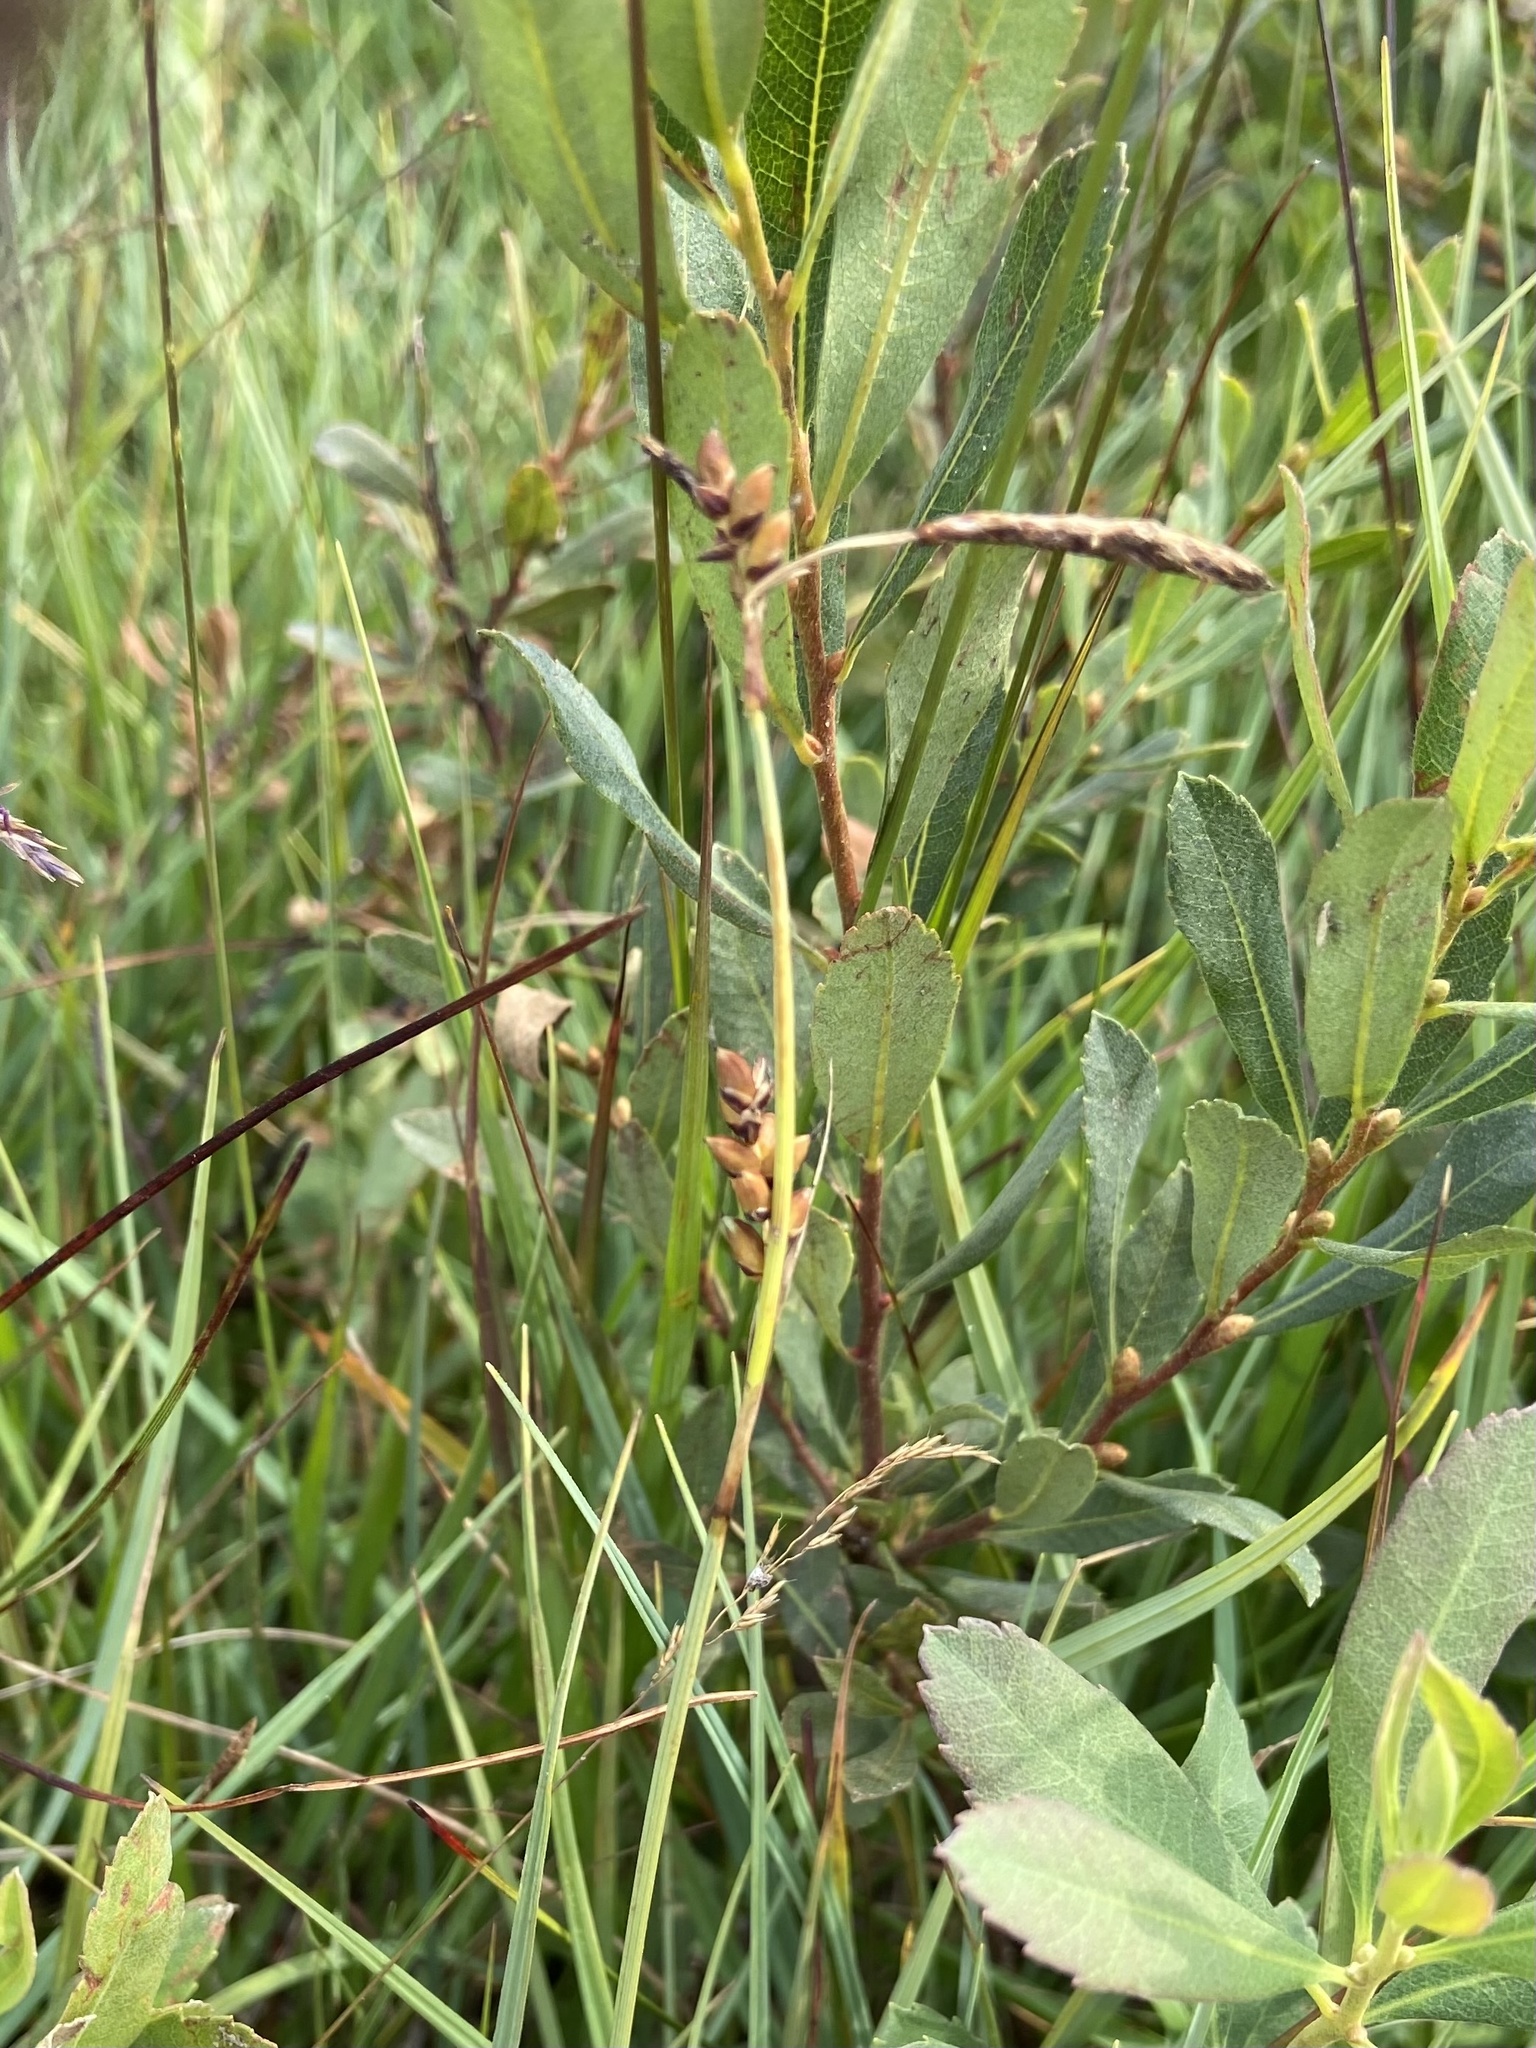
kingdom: Plantae
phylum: Tracheophyta
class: Liliopsida
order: Poales
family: Cyperaceae
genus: Carex
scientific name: Carex panicea
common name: Carnation sedge
